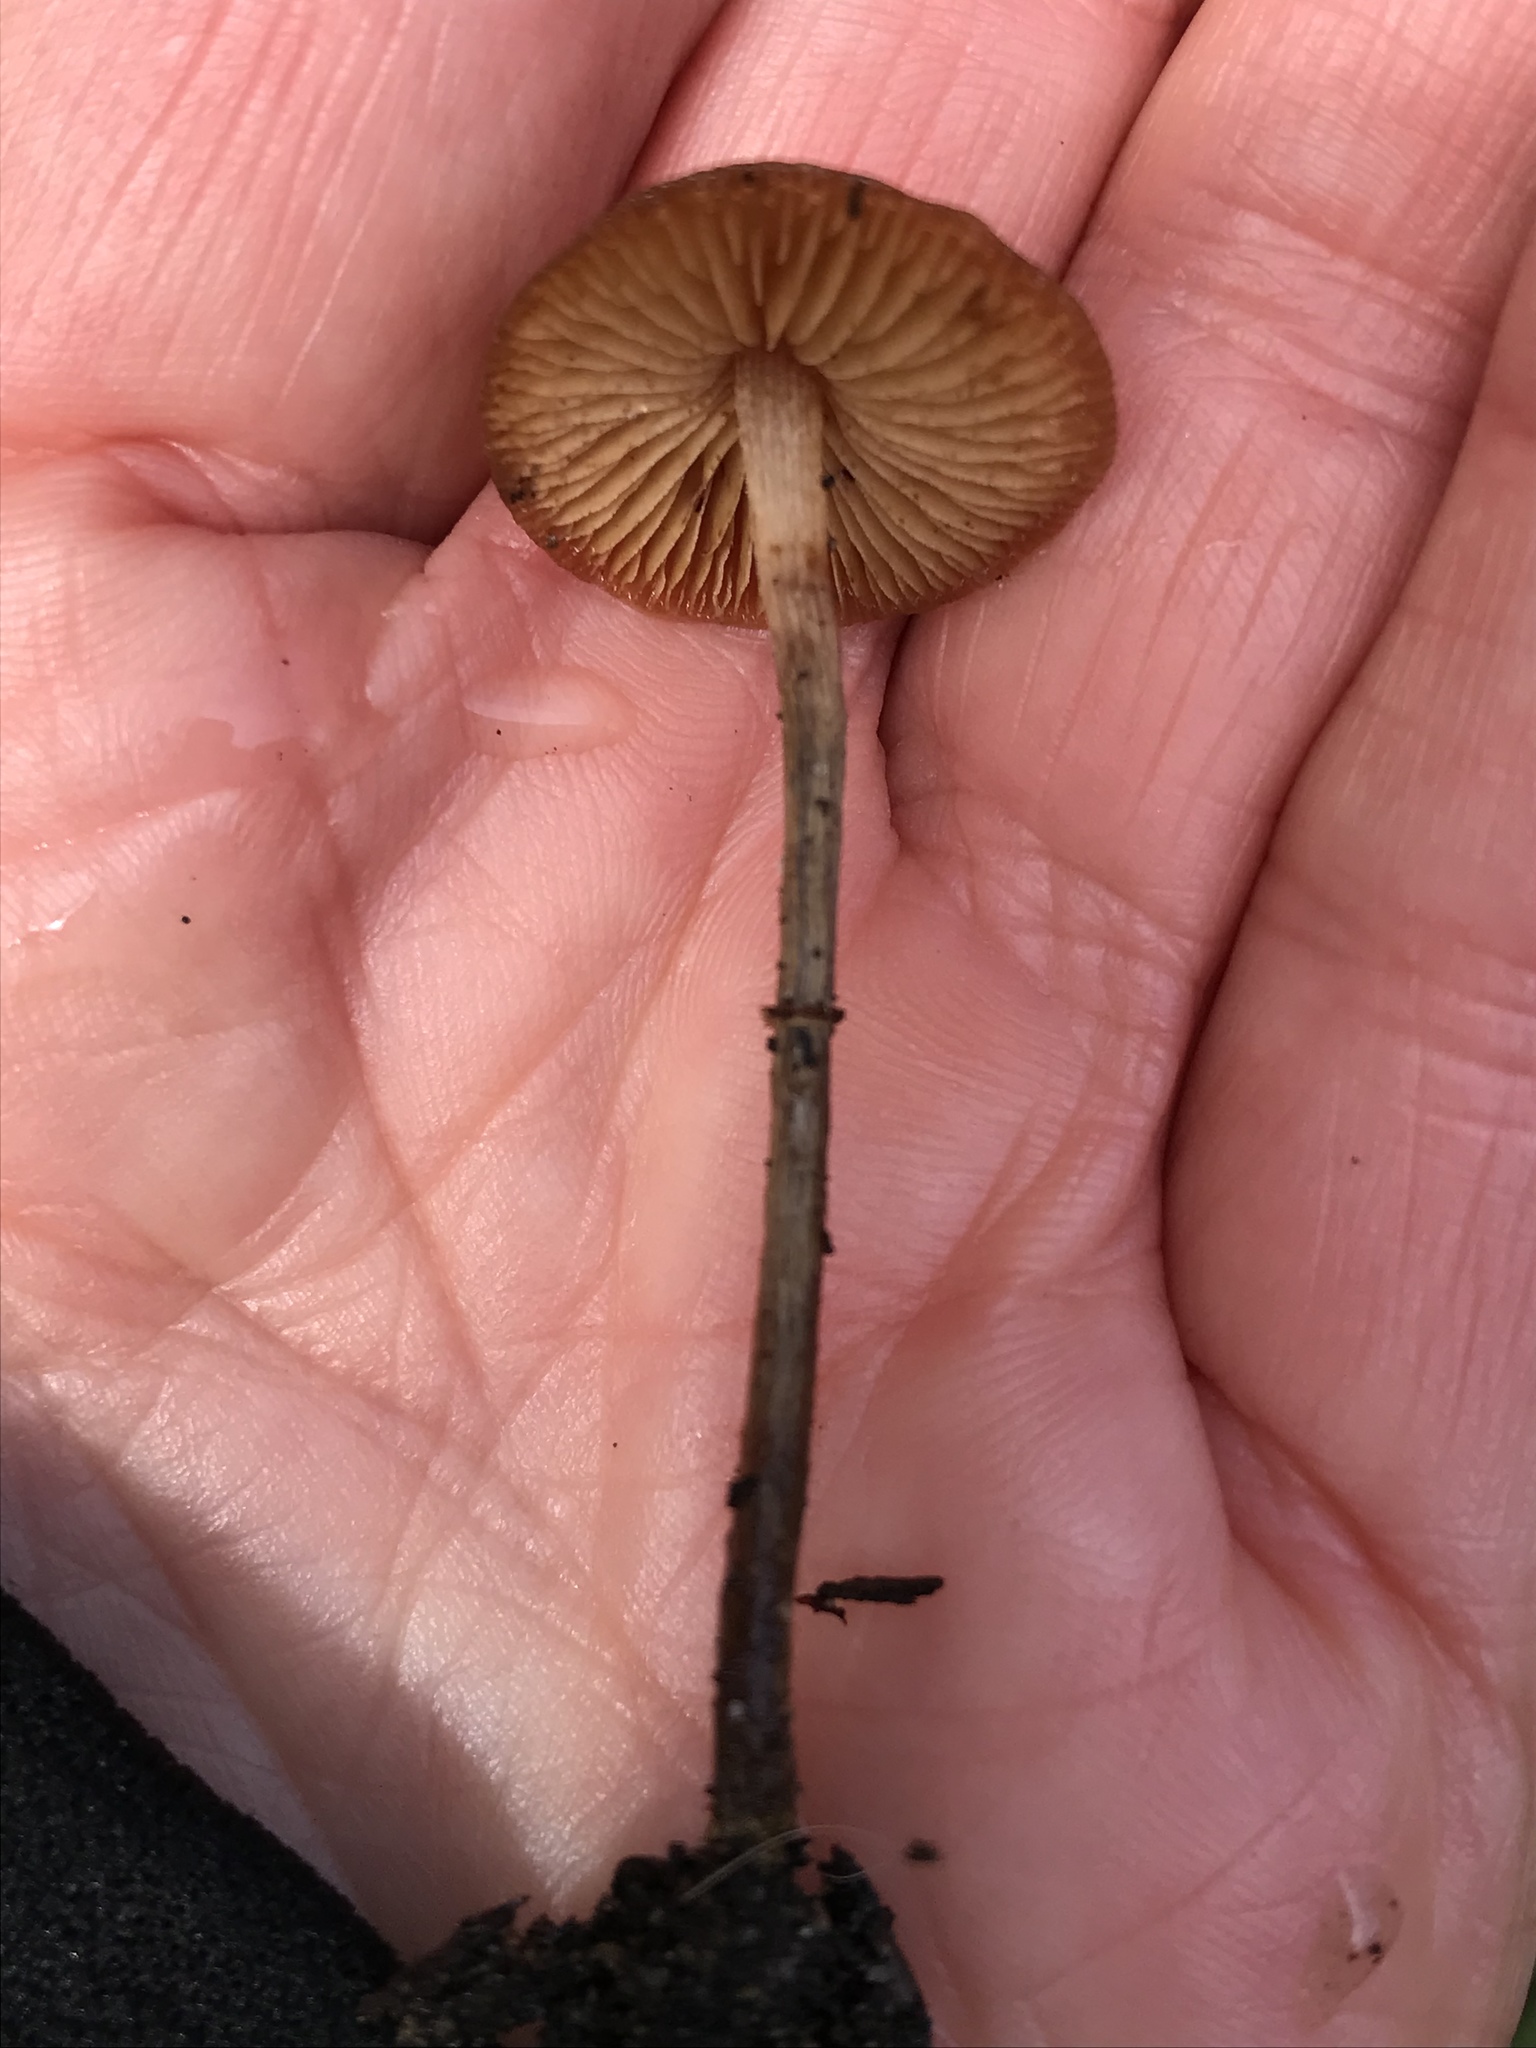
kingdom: Fungi
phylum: Basidiomycota
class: Agaricomycetes
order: Agaricales
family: Bolbitiaceae
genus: Conocybe
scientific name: Conocybe rugosa
